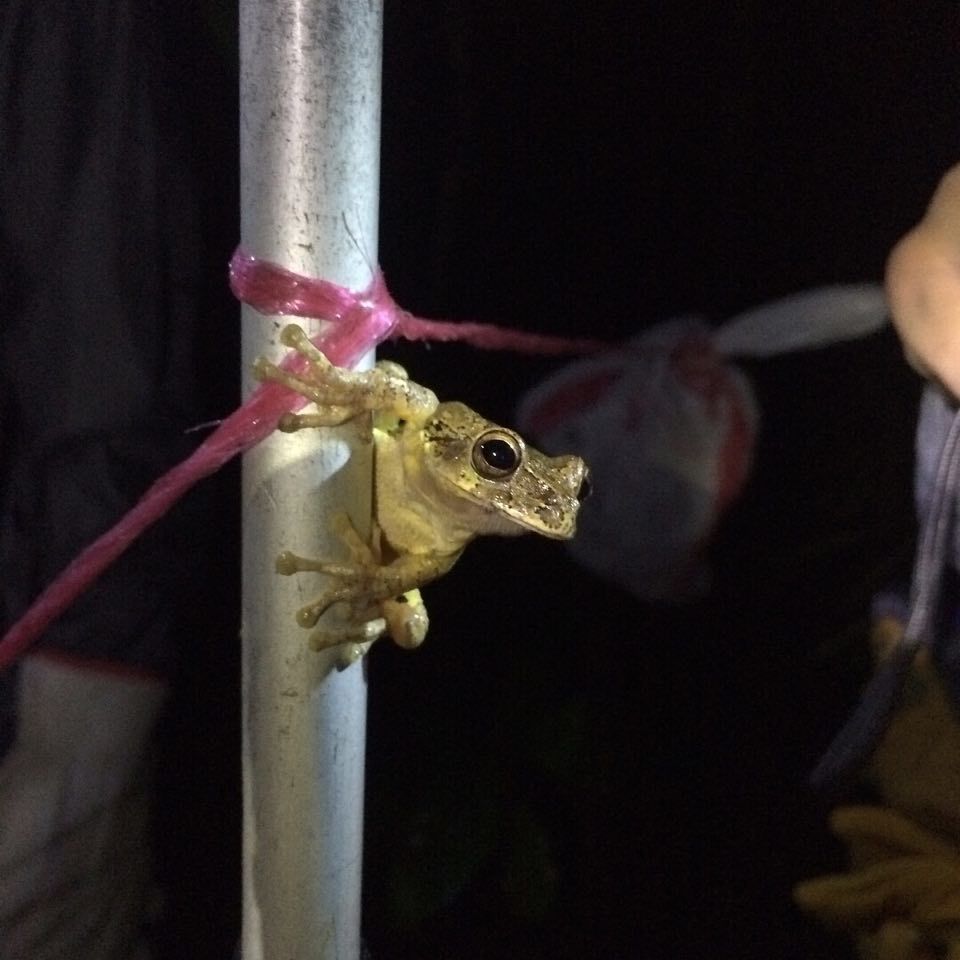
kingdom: Animalia
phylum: Chordata
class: Amphibia
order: Anura
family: Hylidae
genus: Smilisca
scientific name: Smilisca baudinii
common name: Mexican smilisca
